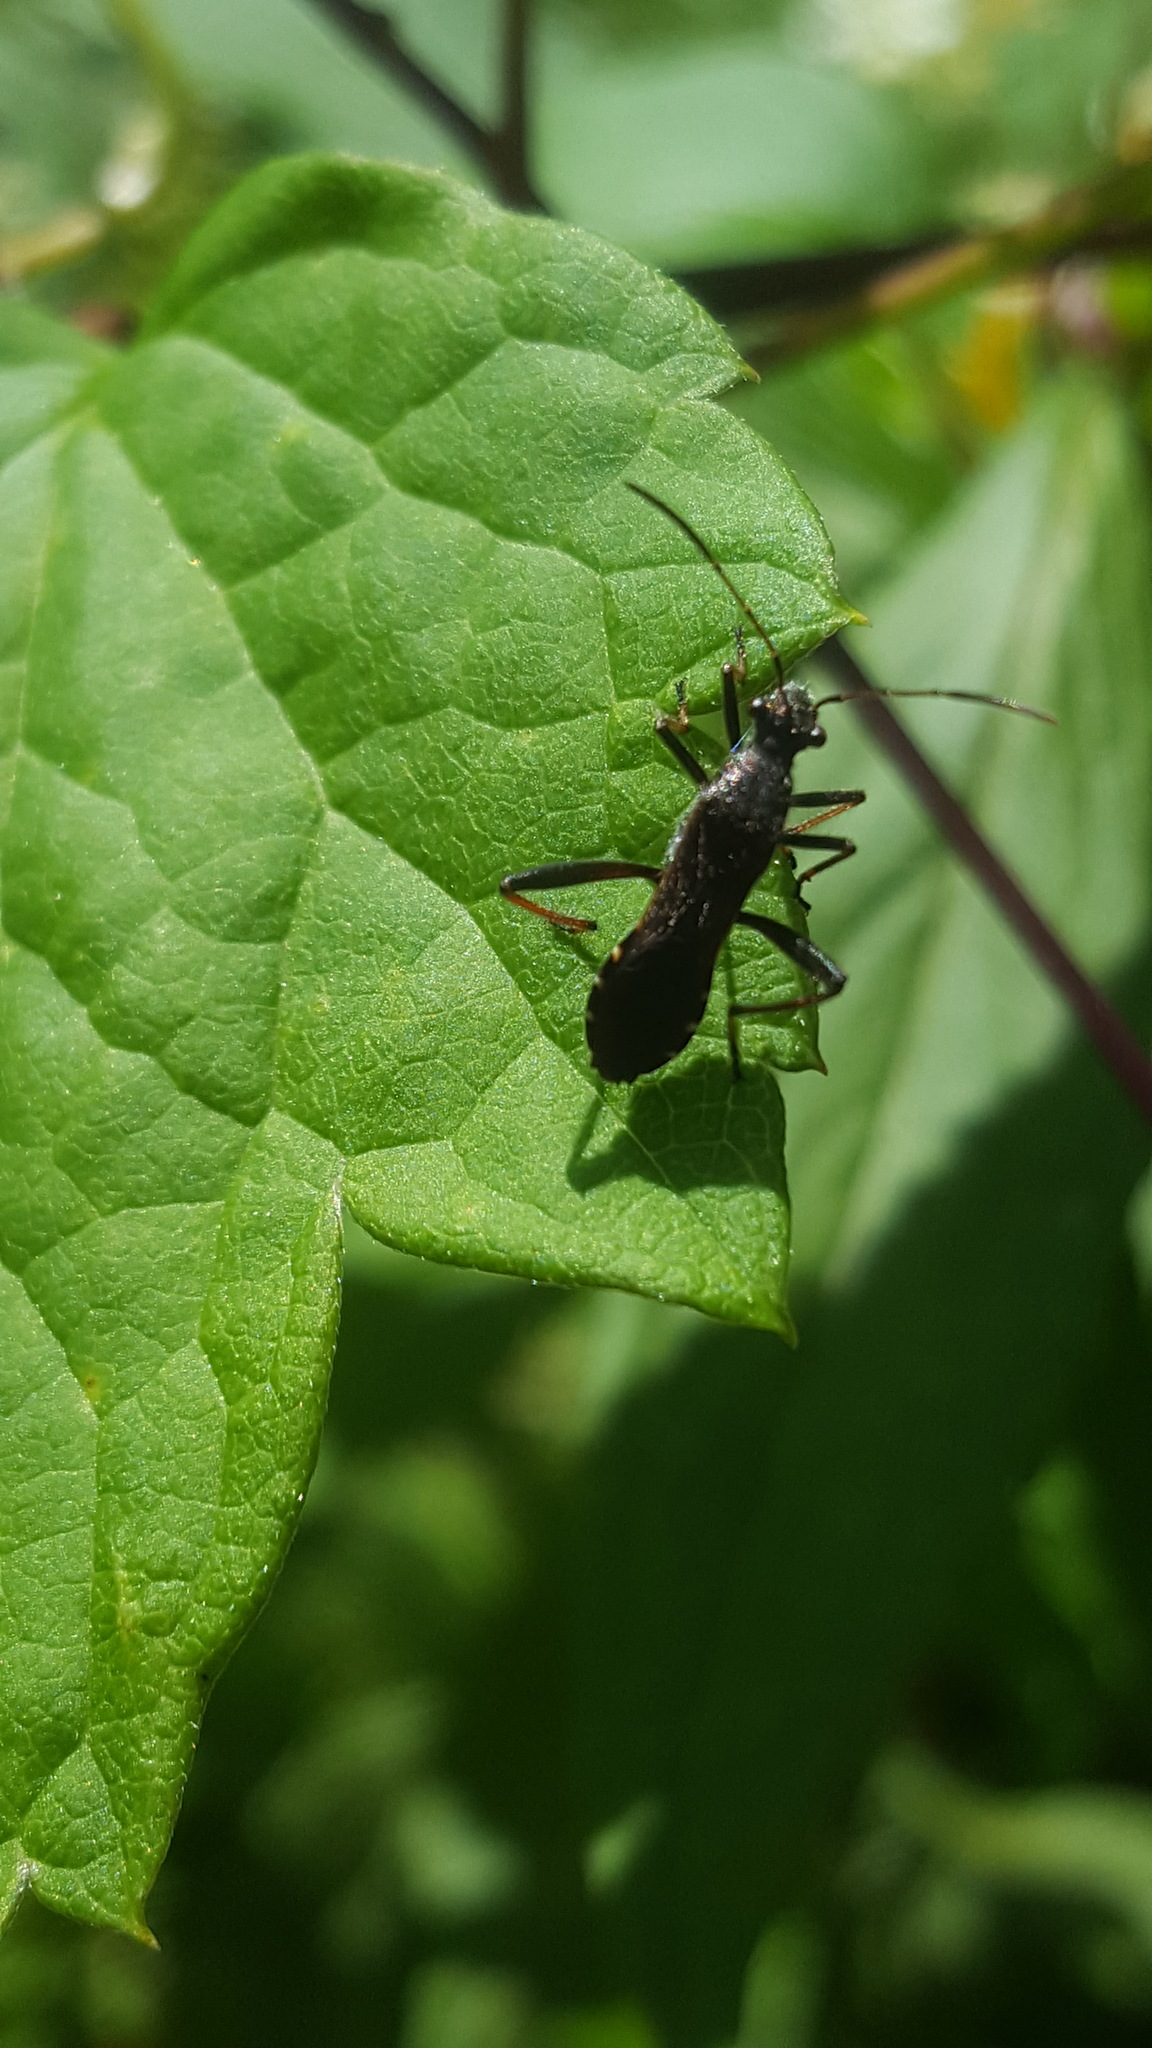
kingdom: Animalia
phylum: Arthropoda
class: Insecta
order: Hemiptera
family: Alydidae
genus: Alydus
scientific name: Alydus eurinus
